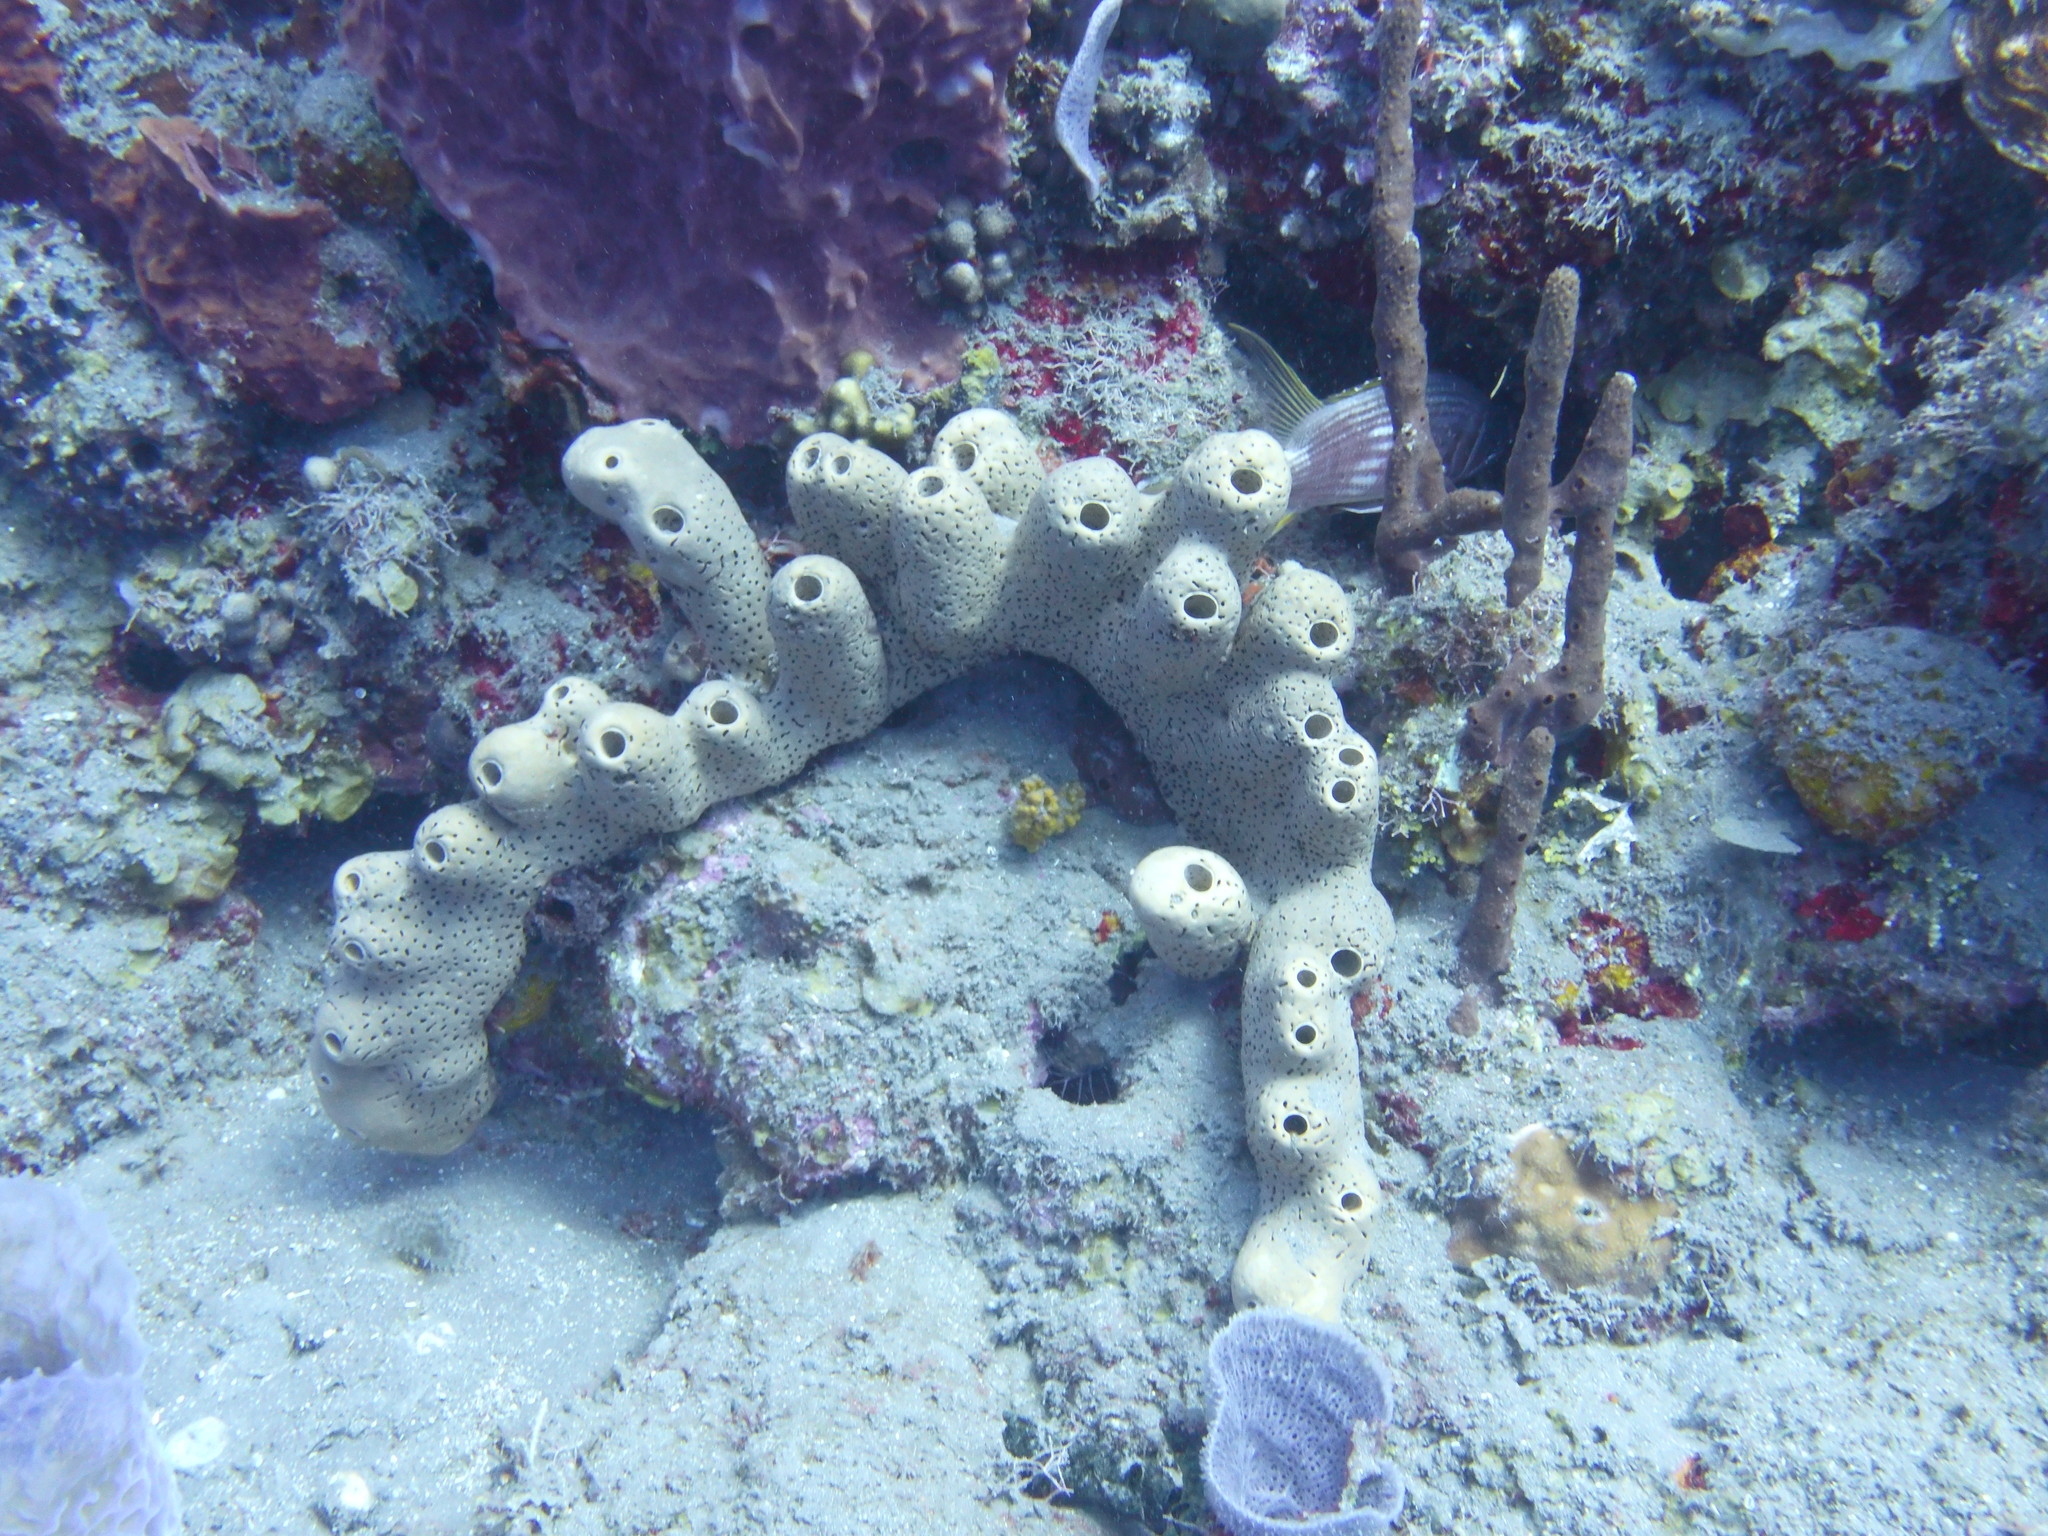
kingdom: Animalia
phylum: Porifera
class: Demospongiae
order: Agelasida
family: Agelasidae
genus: Agelas
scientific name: Agelas conifera
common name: Brown tube sponge
